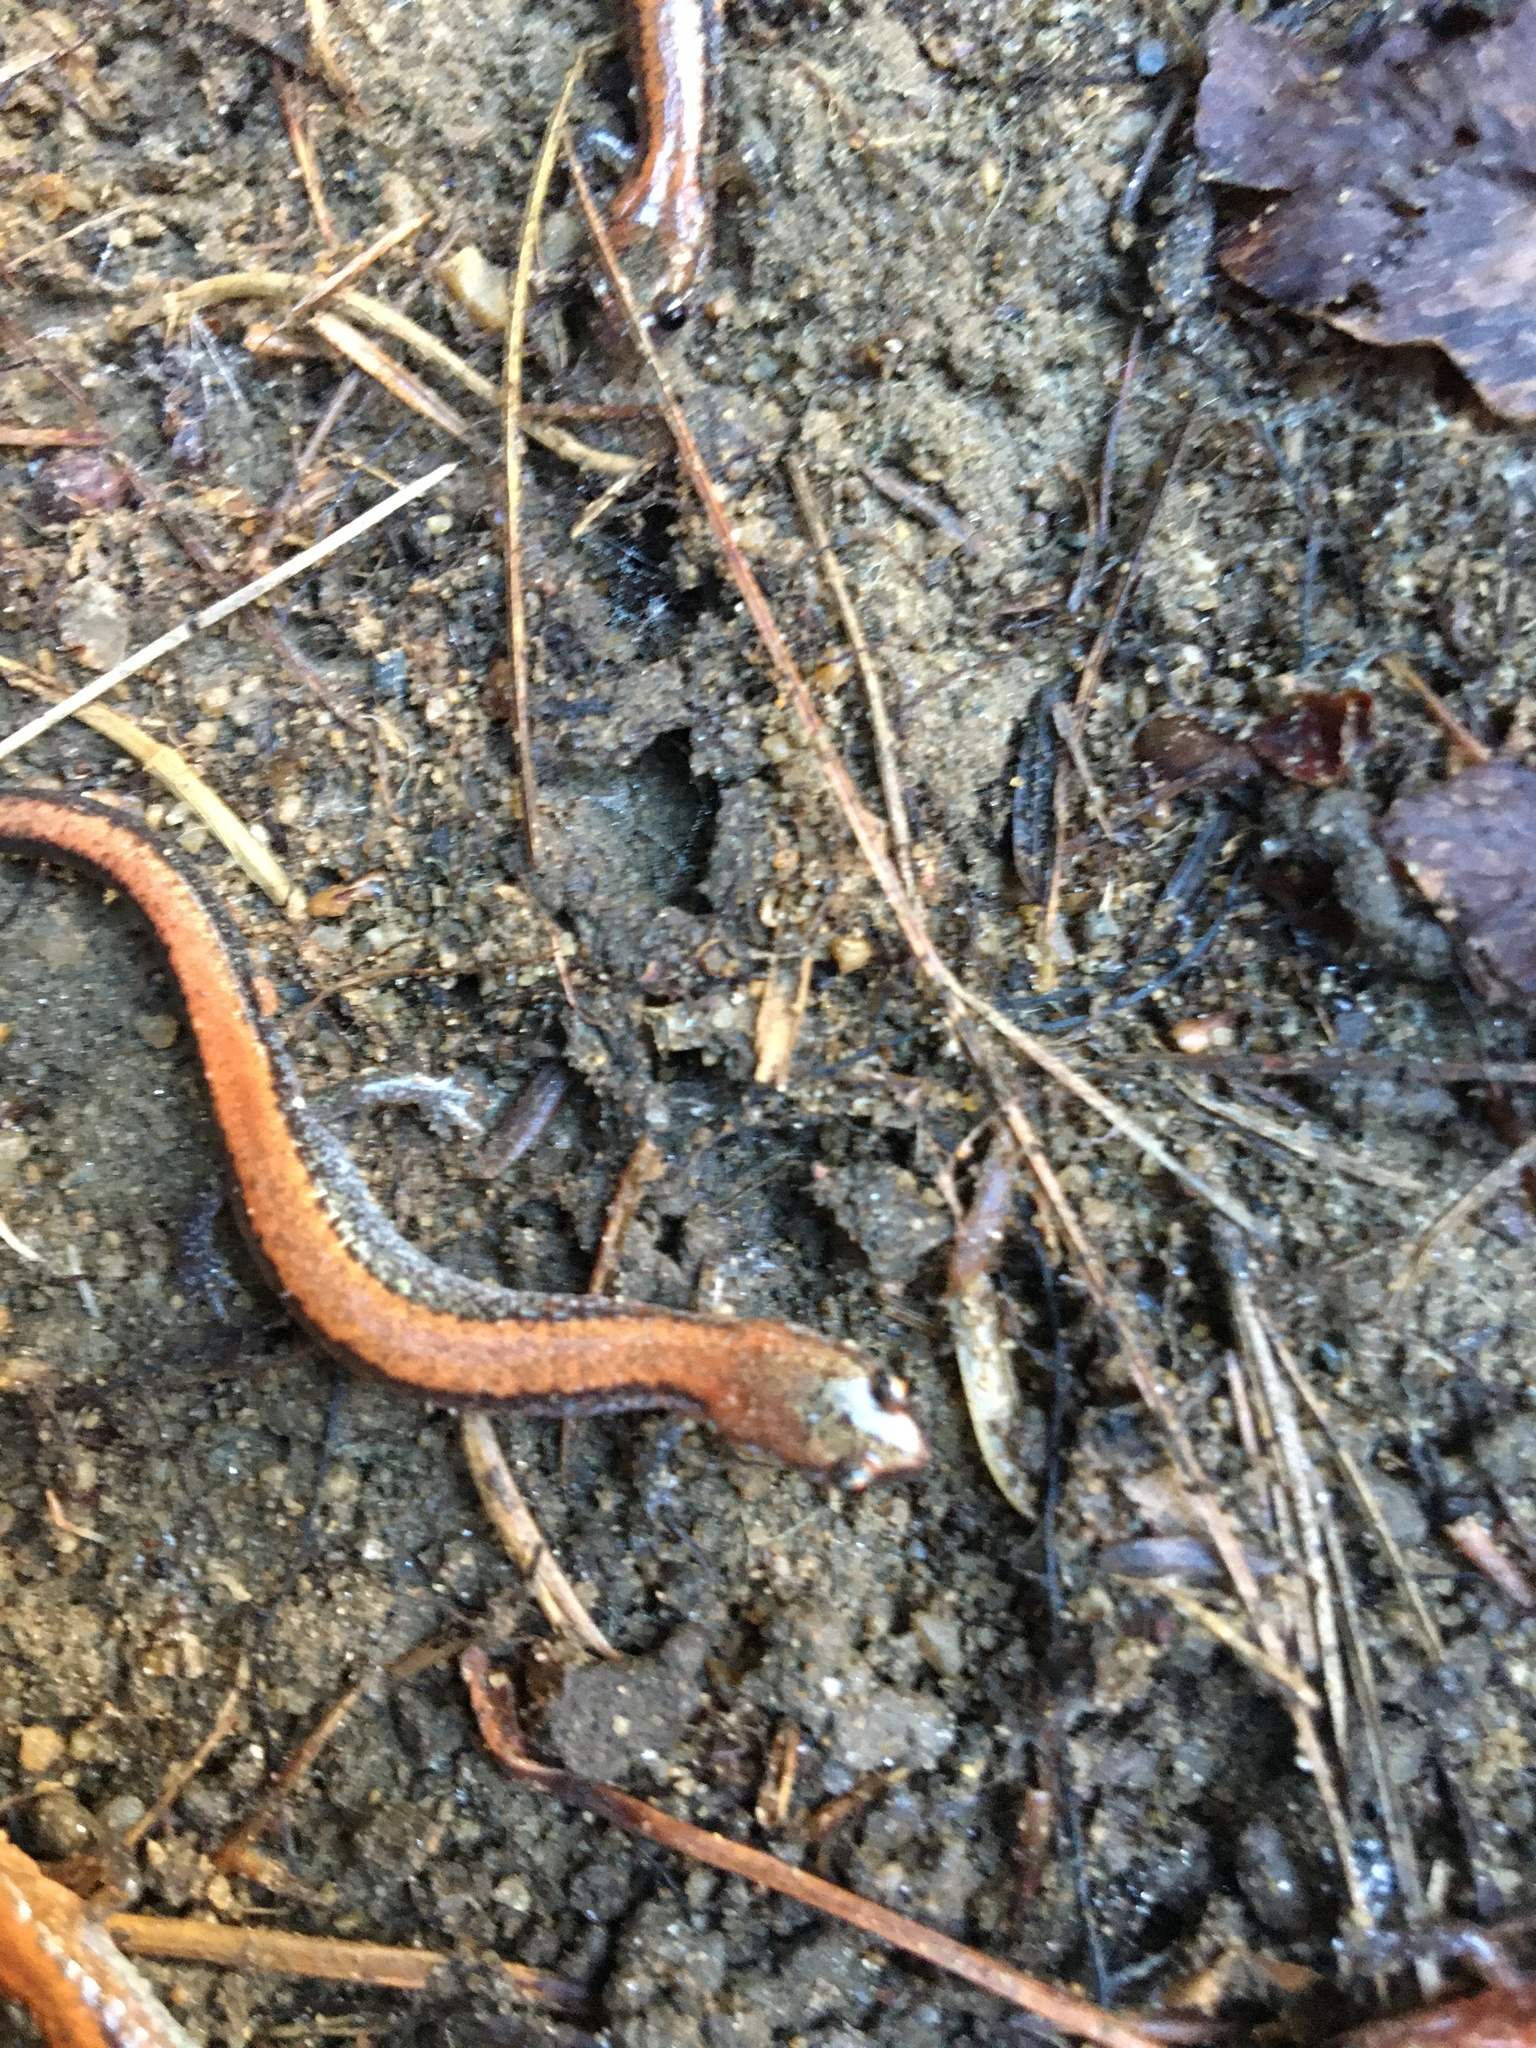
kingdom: Animalia
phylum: Chordata
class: Amphibia
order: Caudata
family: Plethodontidae
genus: Plethodon
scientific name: Plethodon cinereus
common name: Redback salamander
